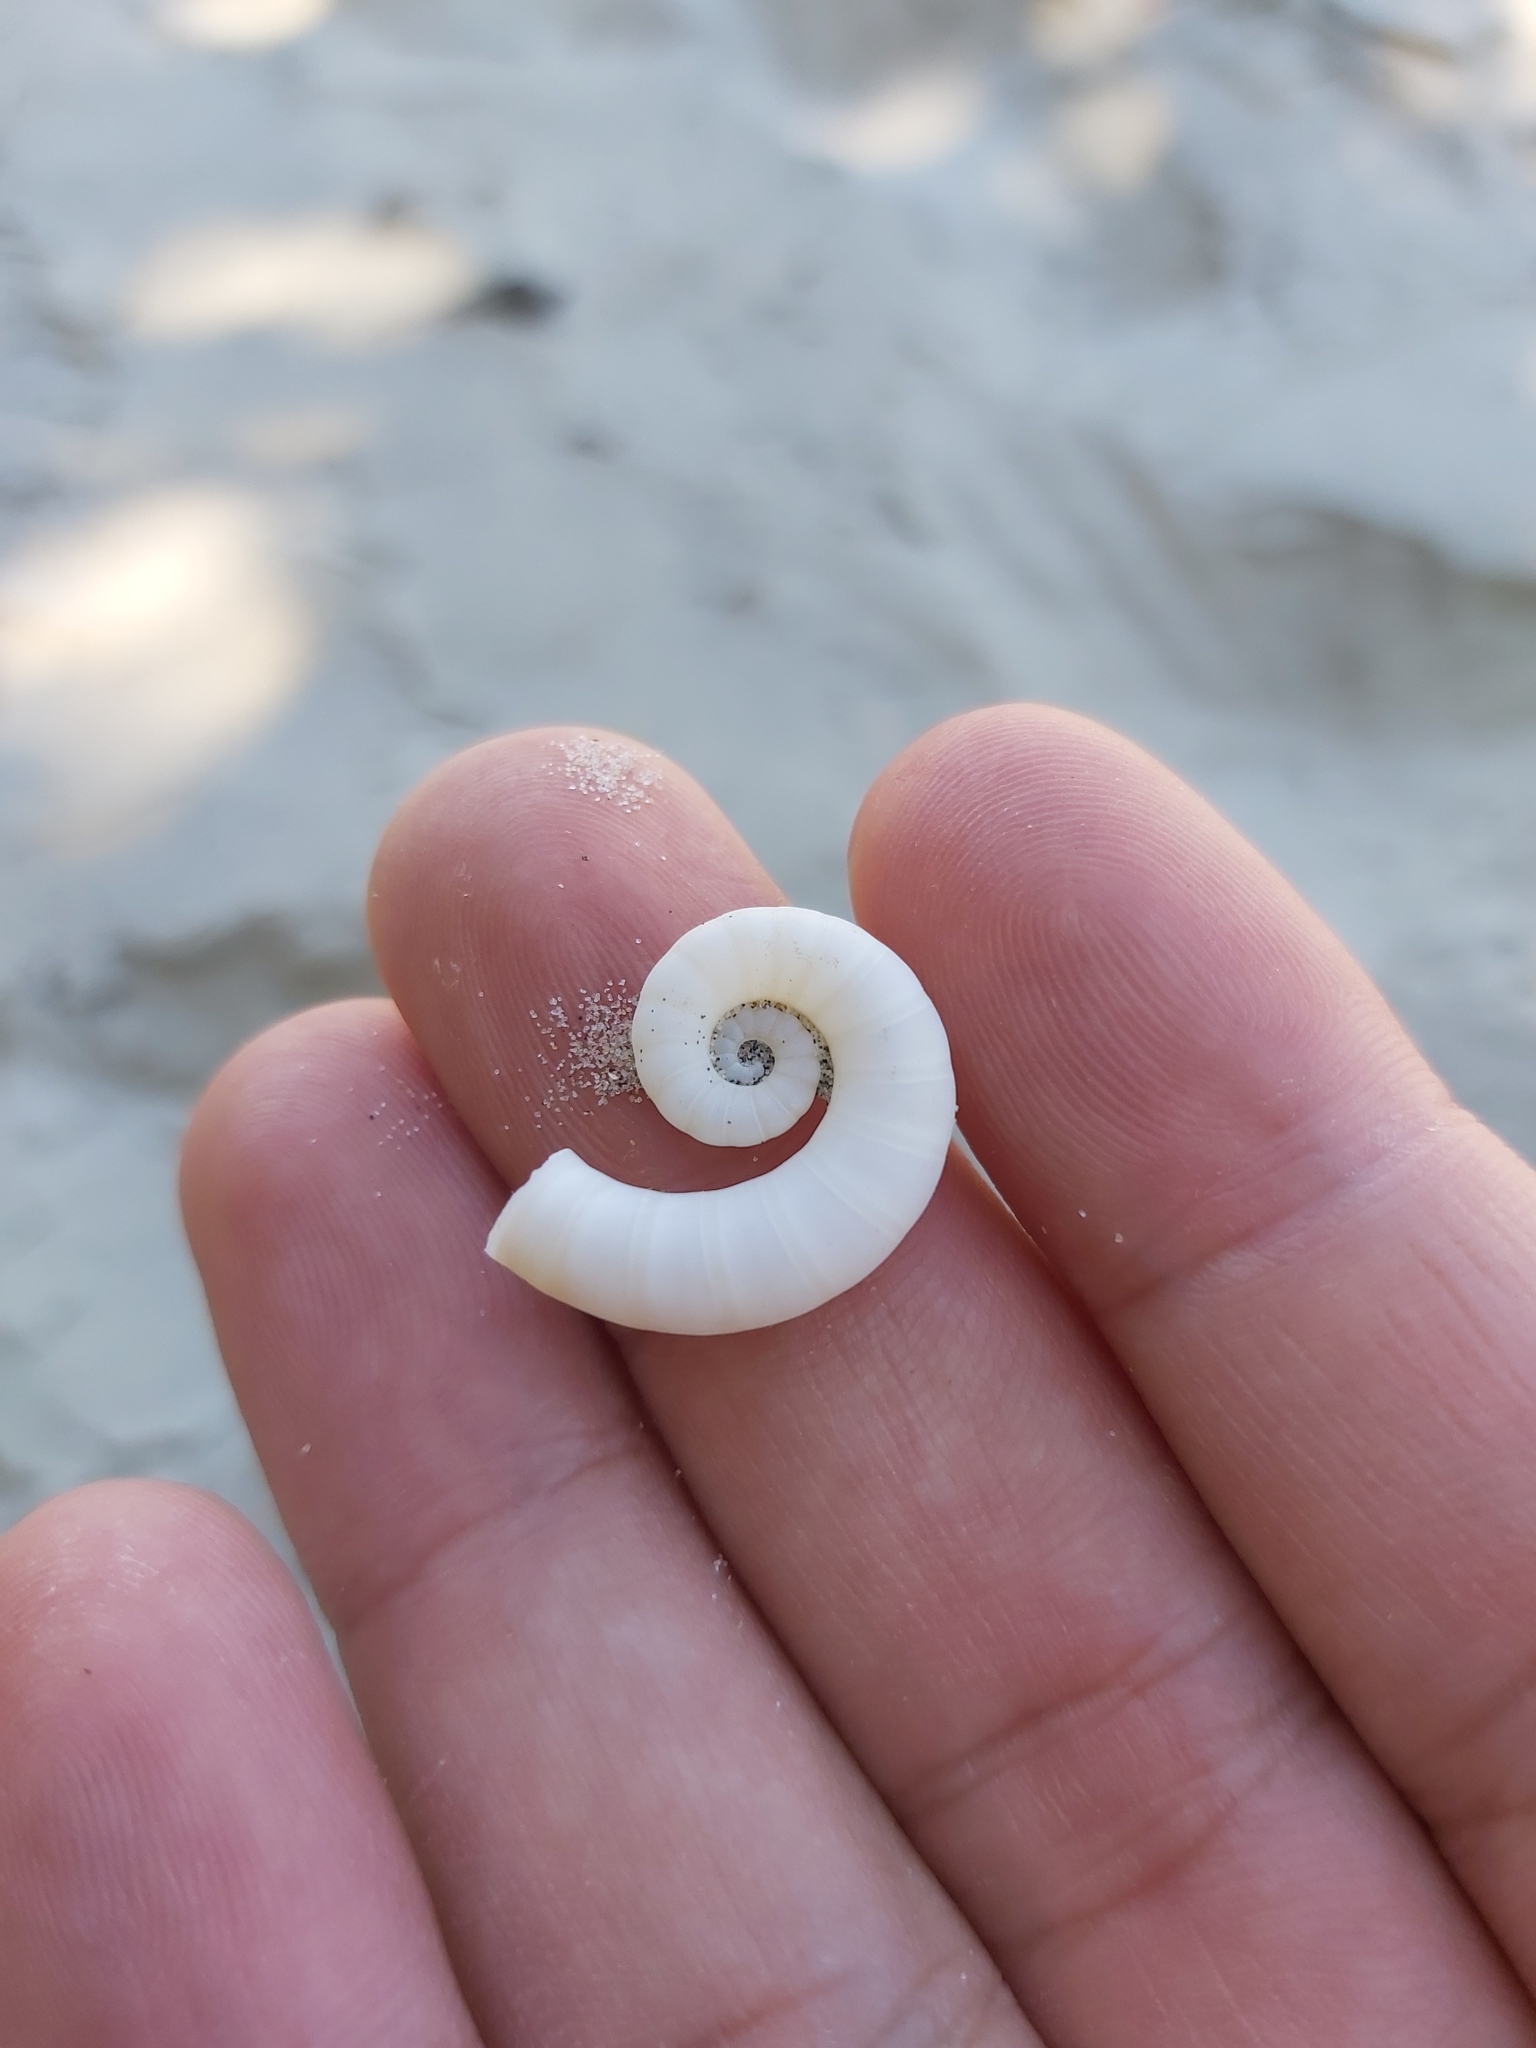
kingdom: Animalia
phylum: Mollusca
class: Cephalopoda
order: Spirulida
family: Spirulidae
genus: Spirula
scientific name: Spirula spirula
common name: Ram's horn squid
